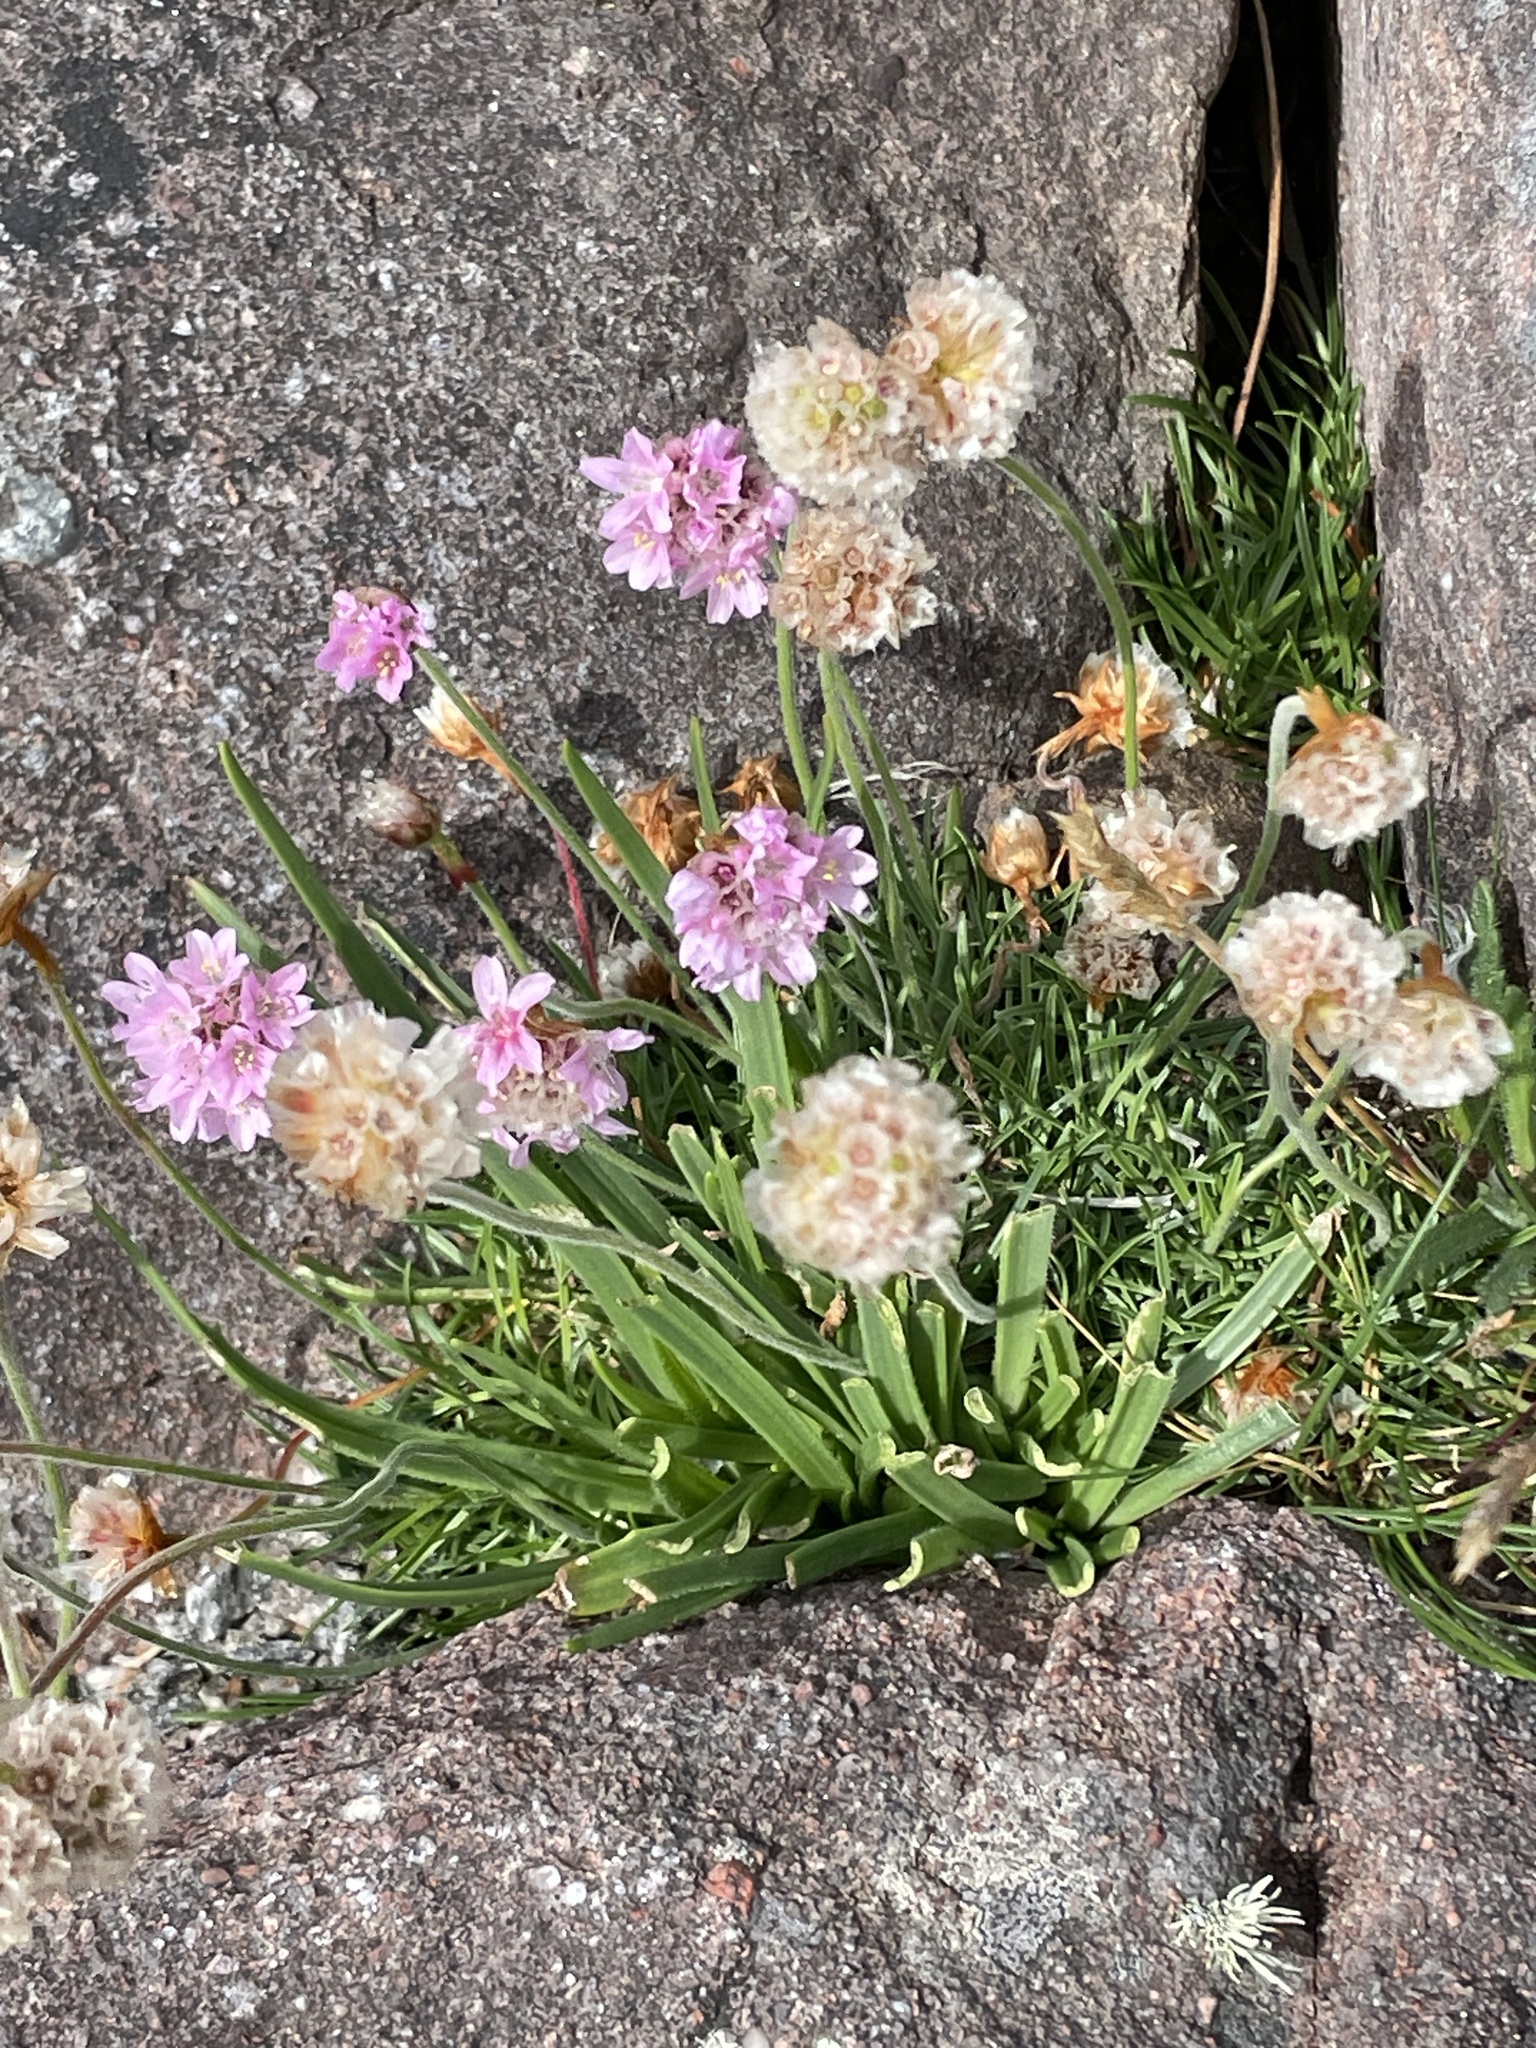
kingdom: Plantae
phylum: Tracheophyta
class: Magnoliopsida
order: Caryophyllales
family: Plumbaginaceae
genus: Armeria
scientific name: Armeria maritima
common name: Thrift
